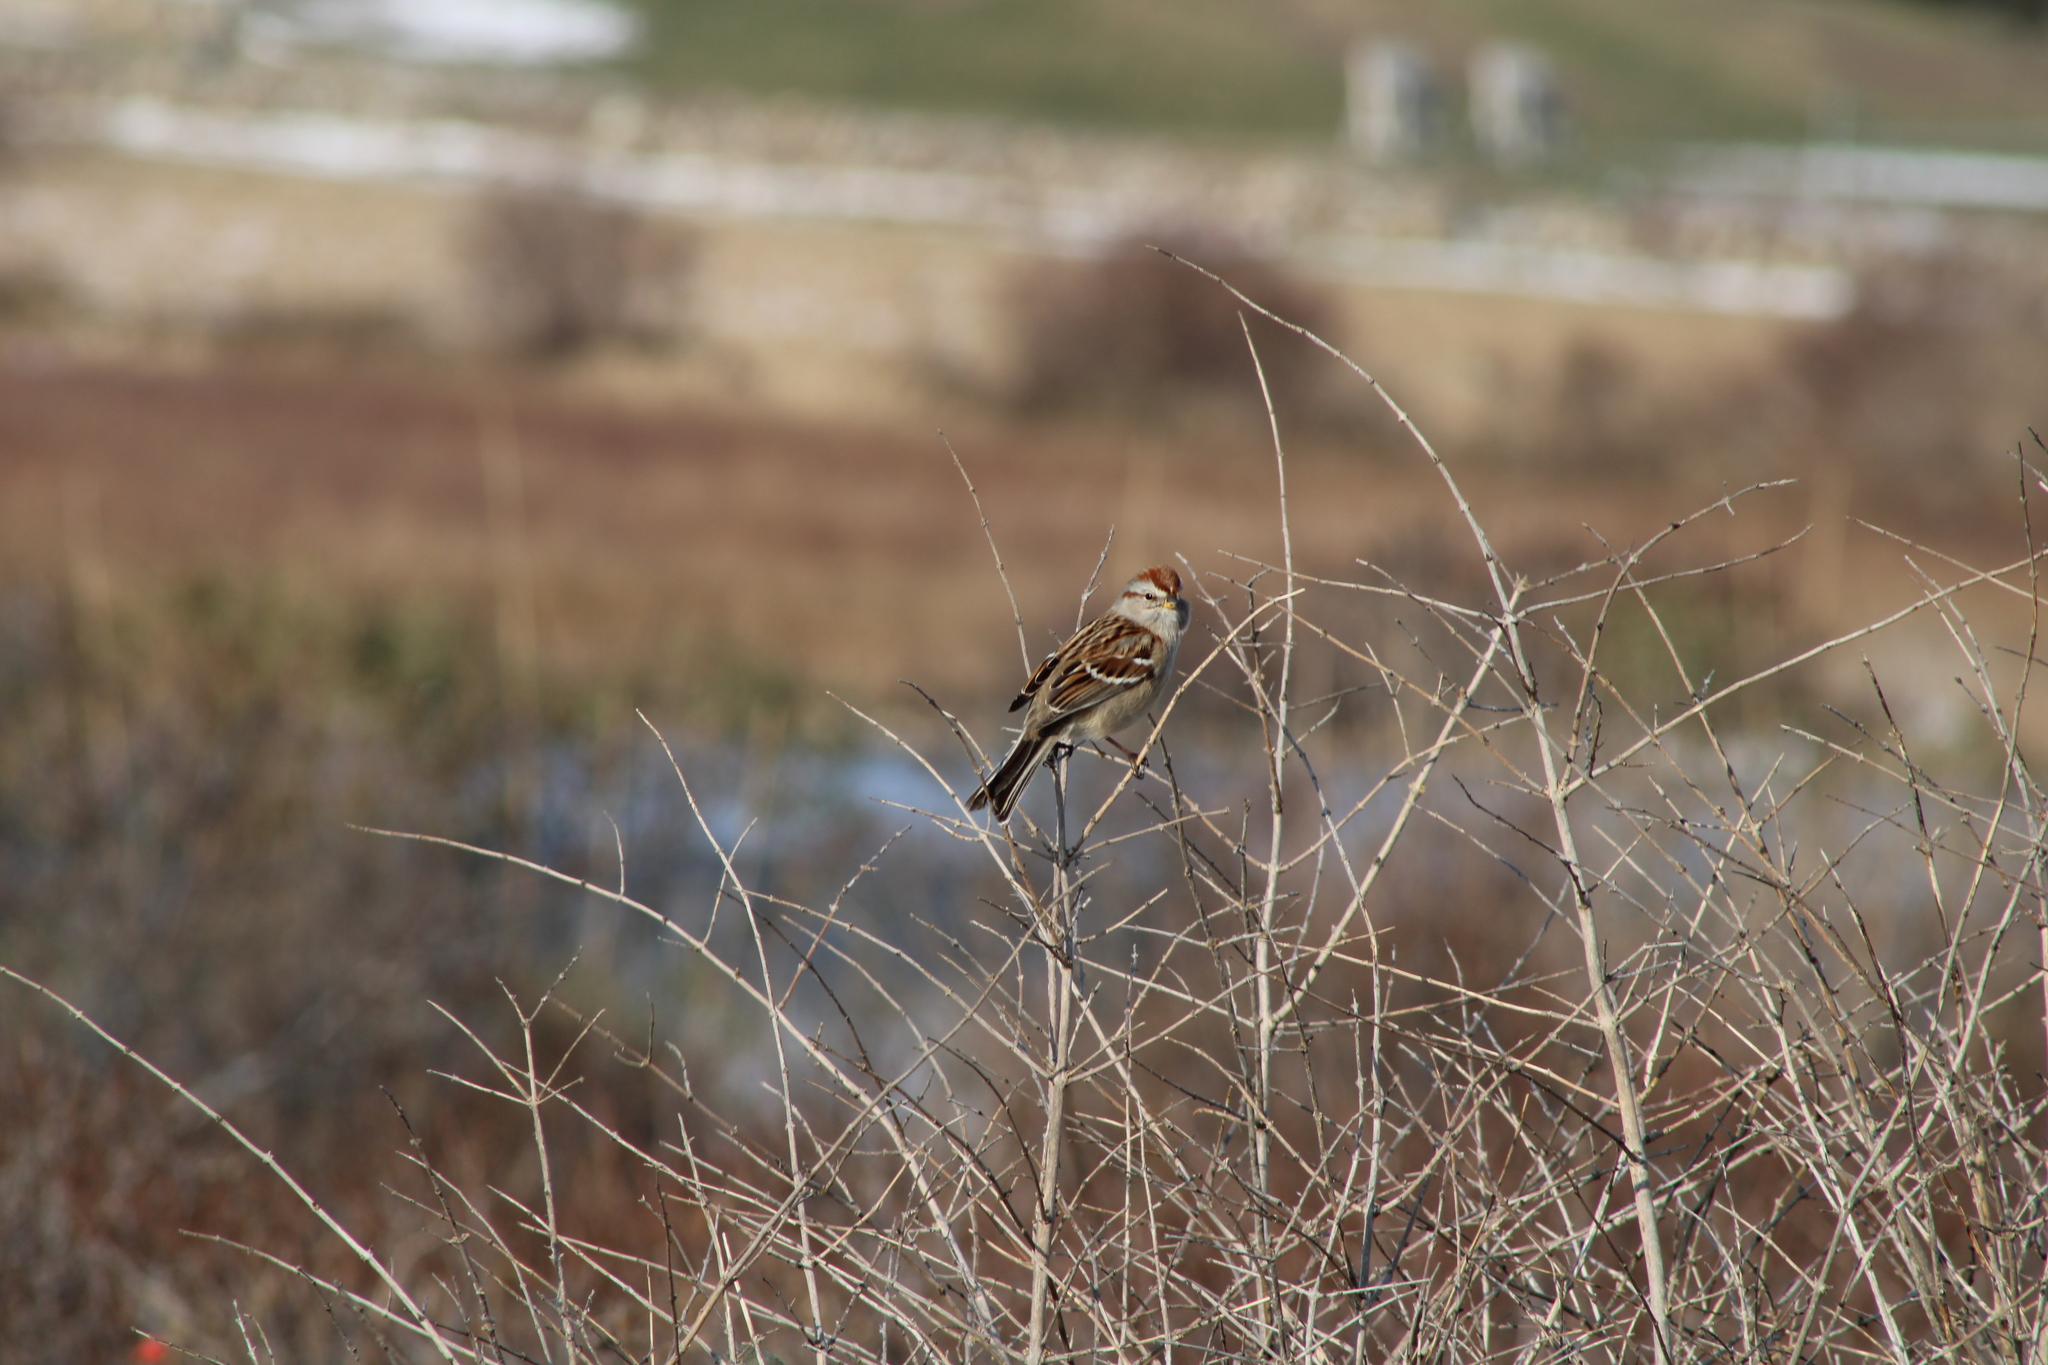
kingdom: Animalia
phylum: Chordata
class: Aves
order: Passeriformes
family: Passerellidae
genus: Spizelloides
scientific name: Spizelloides arborea
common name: American tree sparrow
